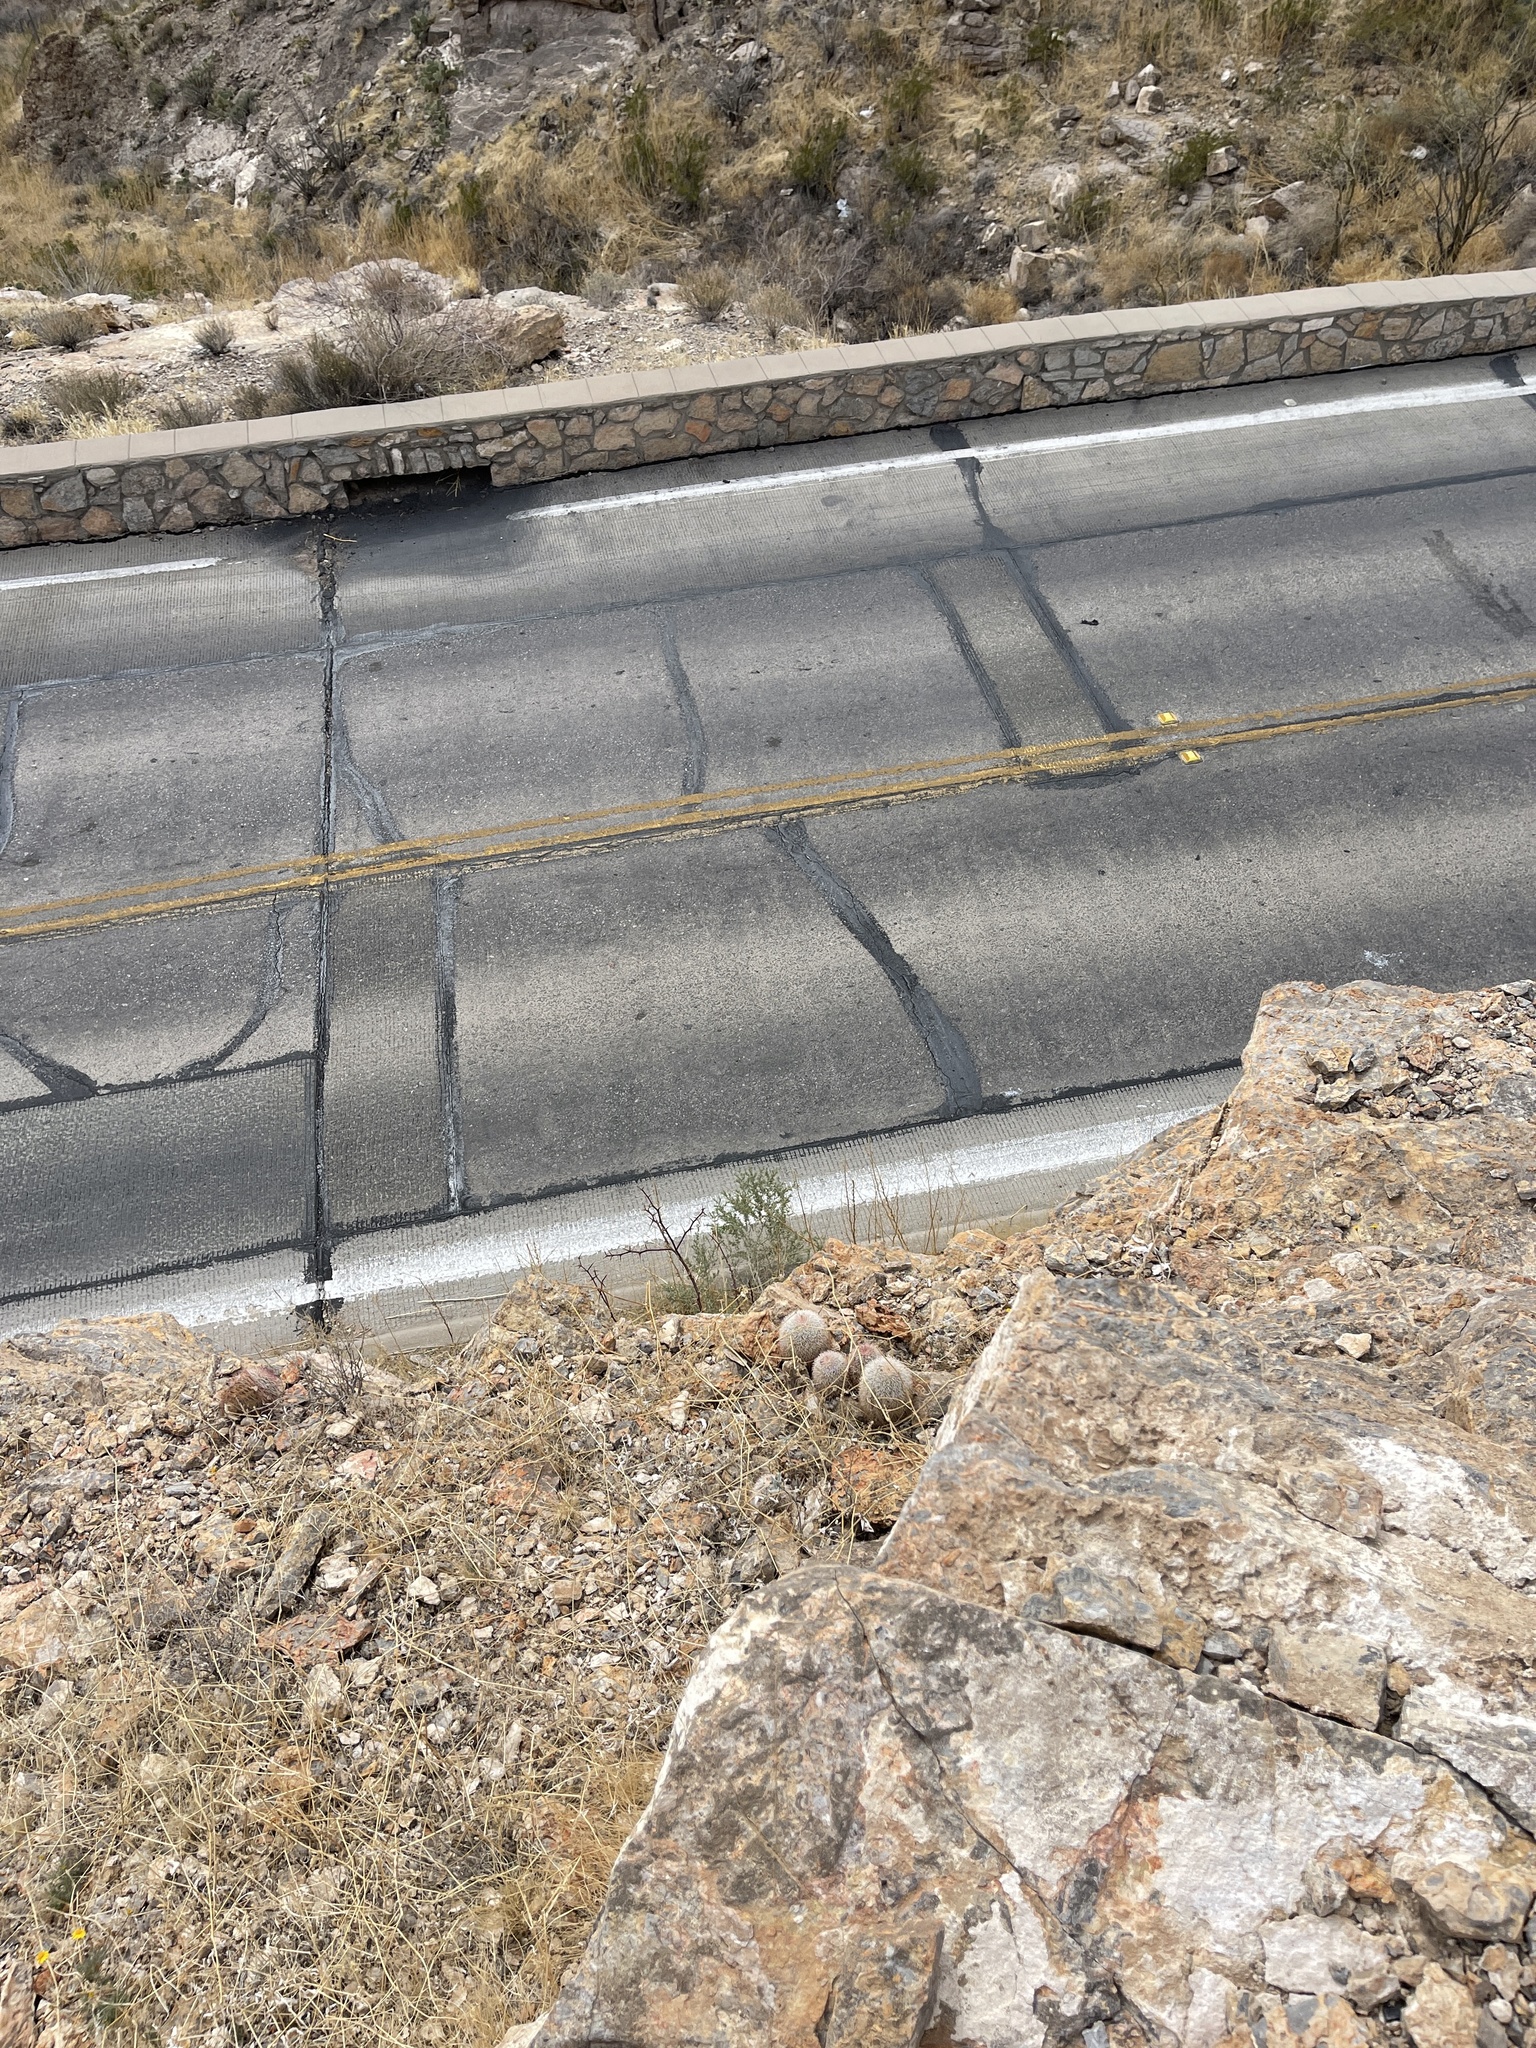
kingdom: Plantae
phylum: Tracheophyta
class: Magnoliopsida
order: Caryophyllales
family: Cactaceae
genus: Echinocereus
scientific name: Echinocereus dasyacanthus
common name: Spiny hedgehog cactus
